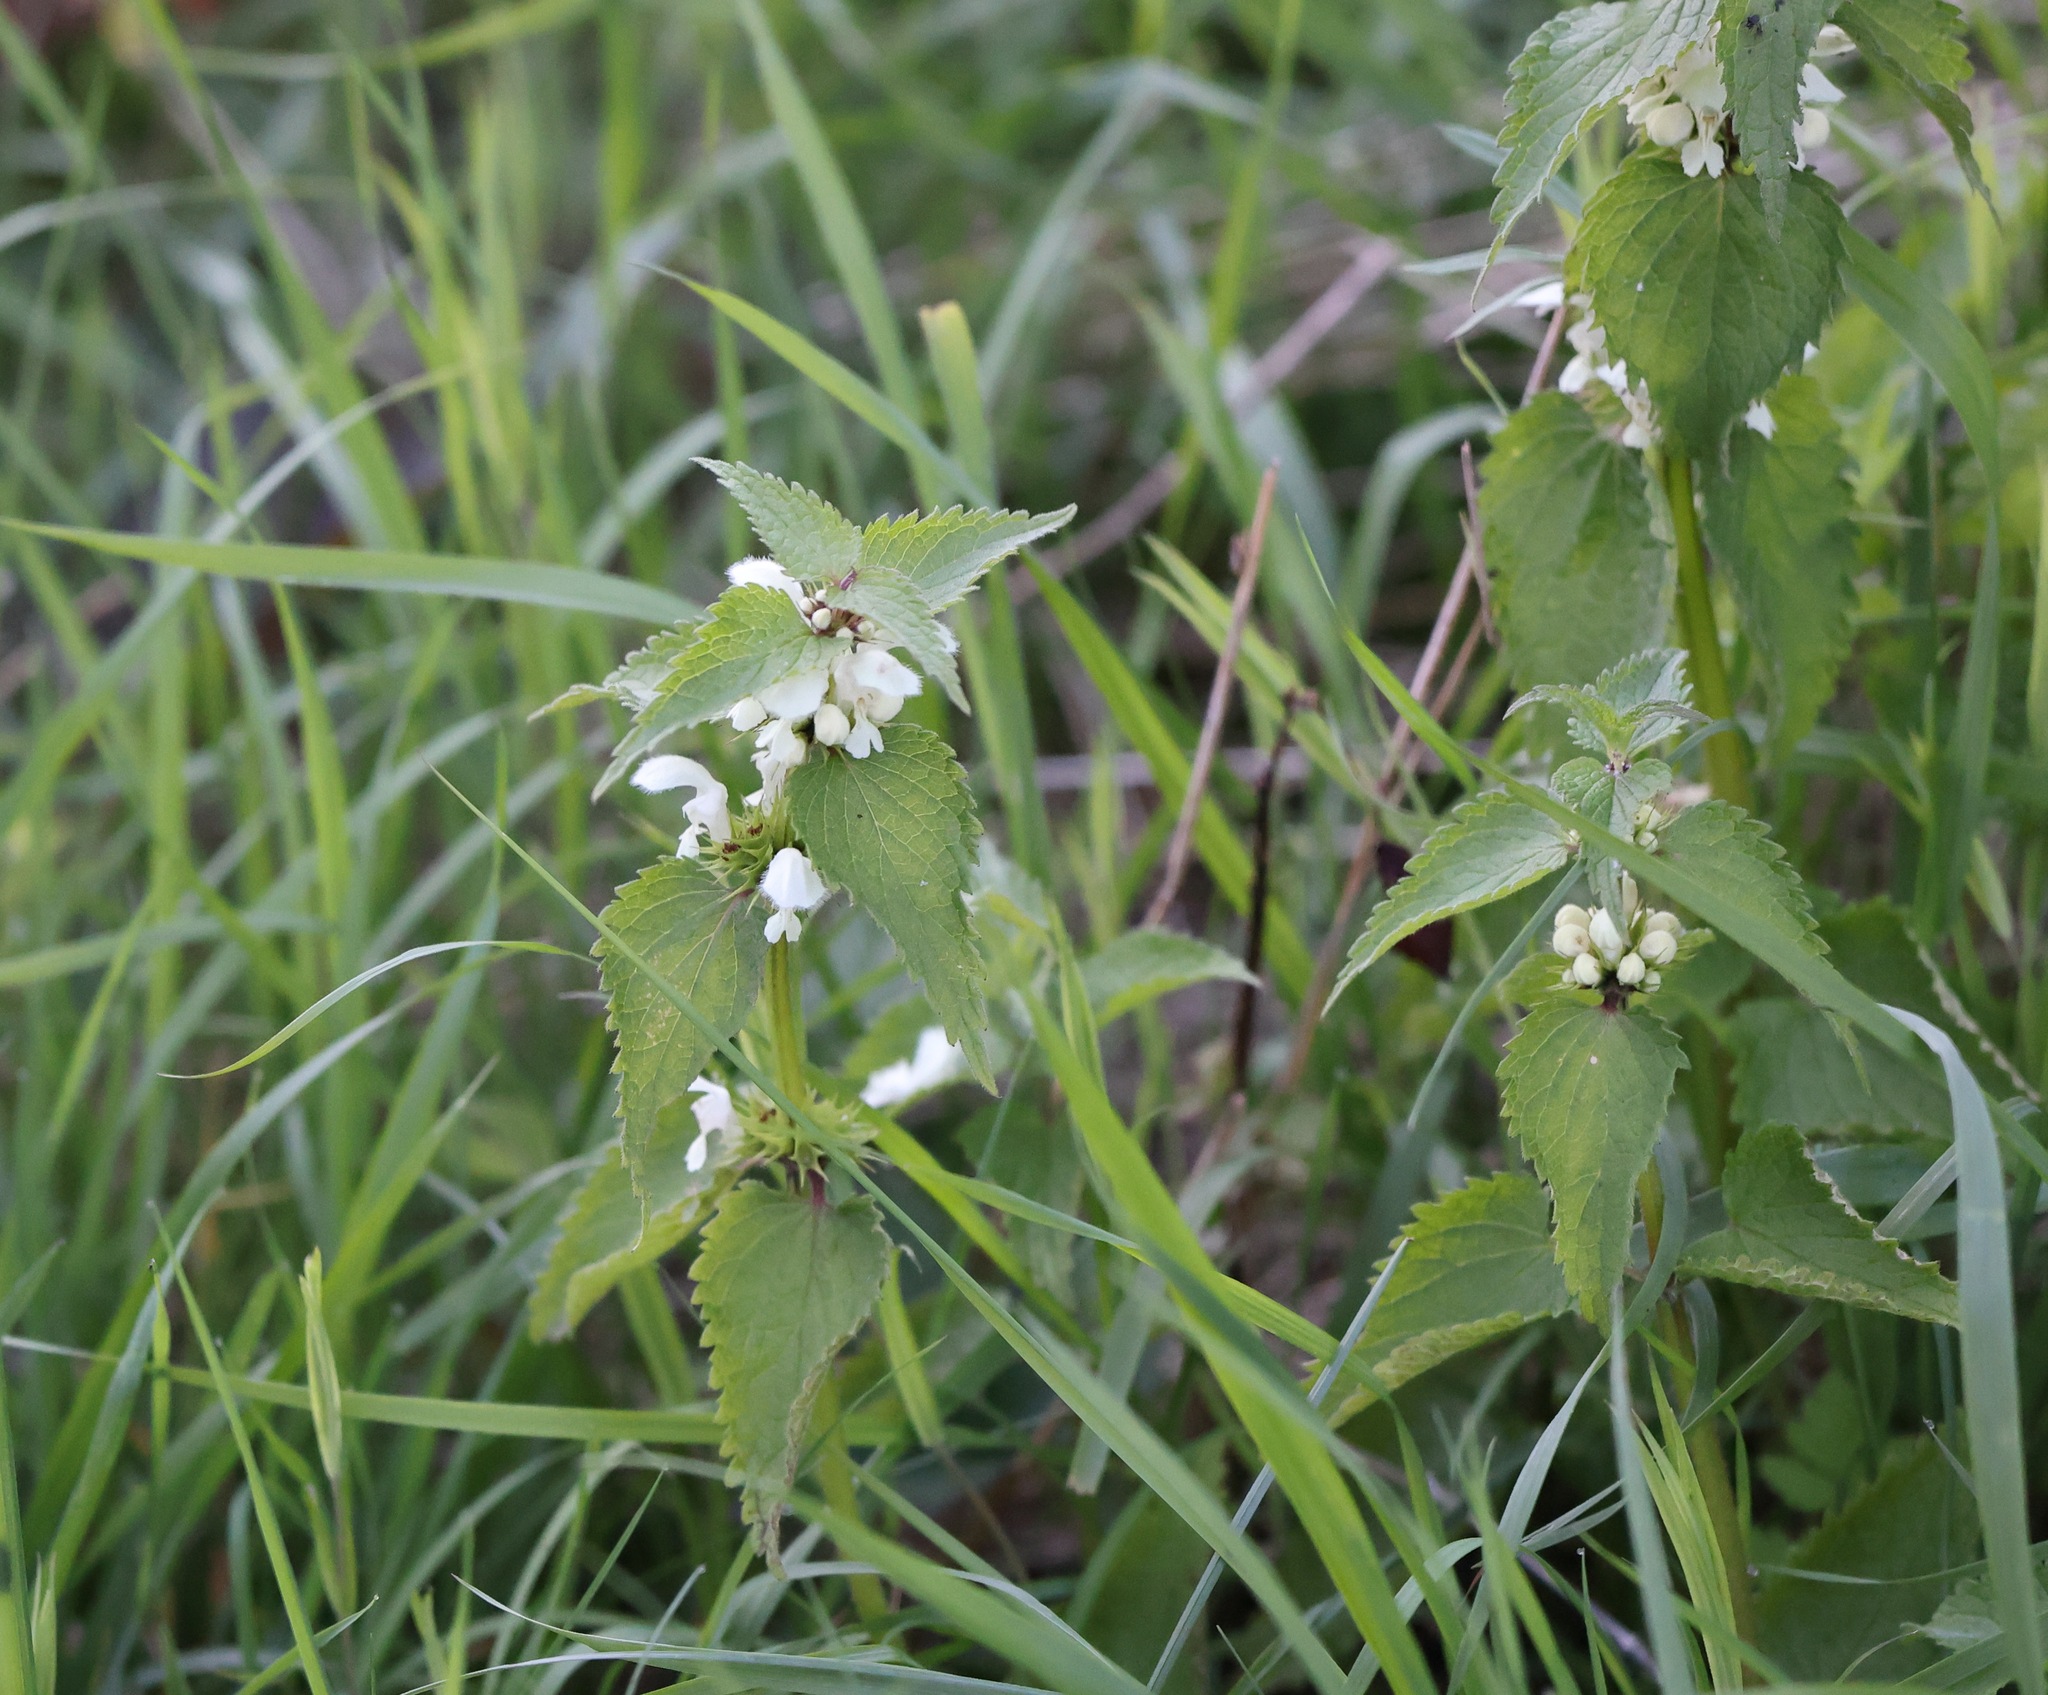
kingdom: Plantae
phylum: Tracheophyta
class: Magnoliopsida
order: Lamiales
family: Lamiaceae
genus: Lamium
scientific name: Lamium album
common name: White dead-nettle
